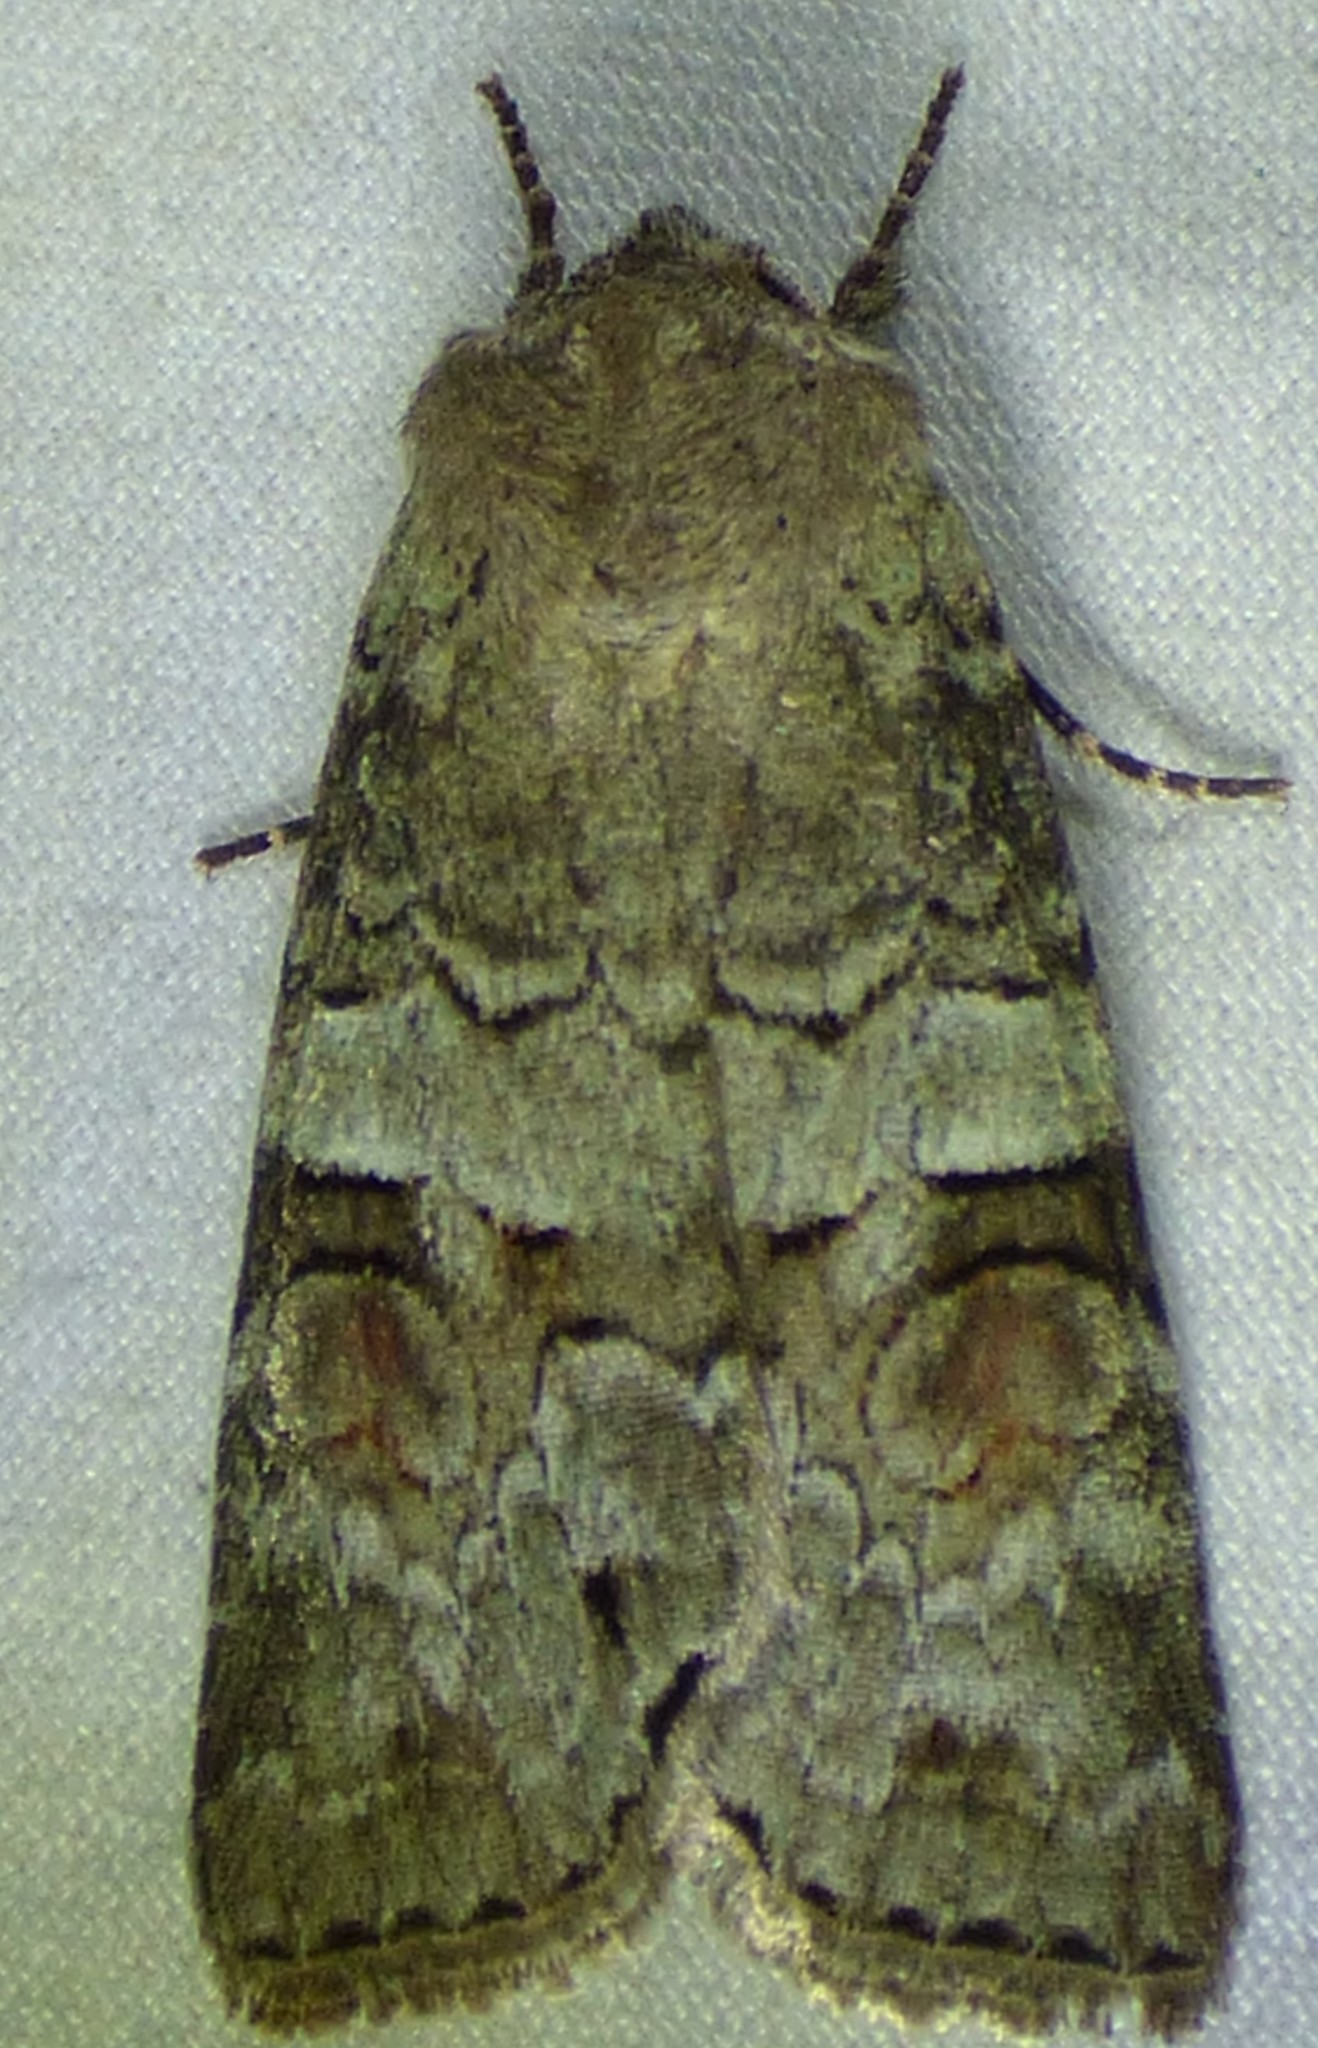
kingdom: Animalia
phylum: Arthropoda
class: Insecta
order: Lepidoptera
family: Noctuidae
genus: Egira
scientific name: Egira alternans
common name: Alternate woodling
